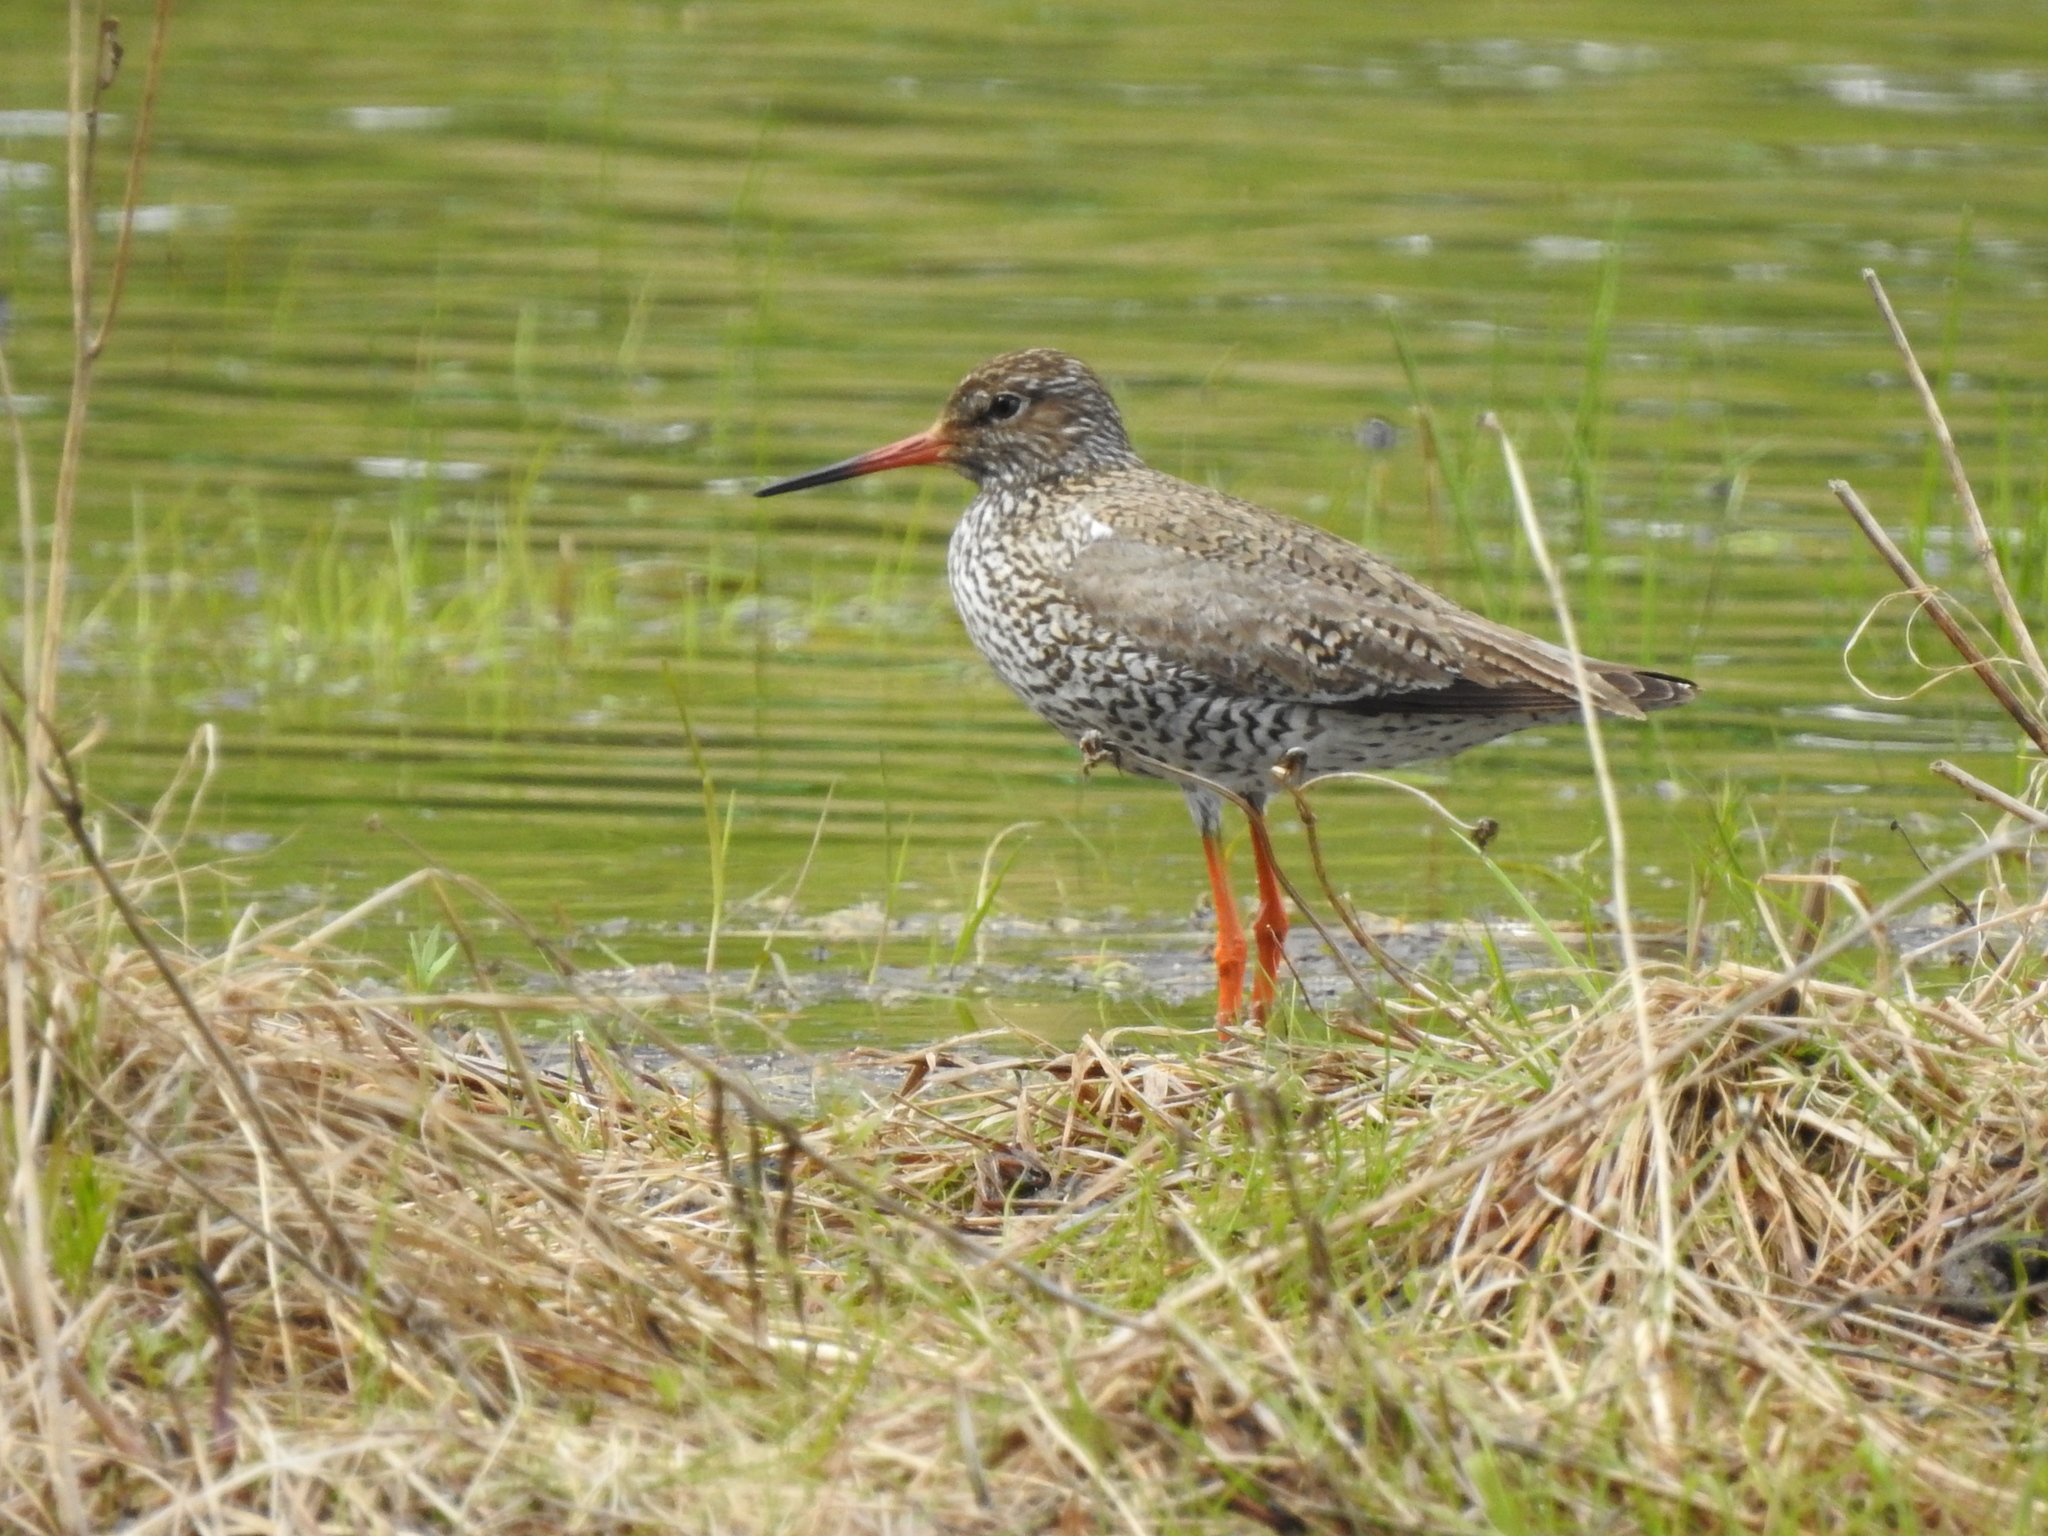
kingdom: Animalia
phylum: Chordata
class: Aves
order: Charadriiformes
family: Scolopacidae
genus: Tringa
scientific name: Tringa totanus
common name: Common redshank
